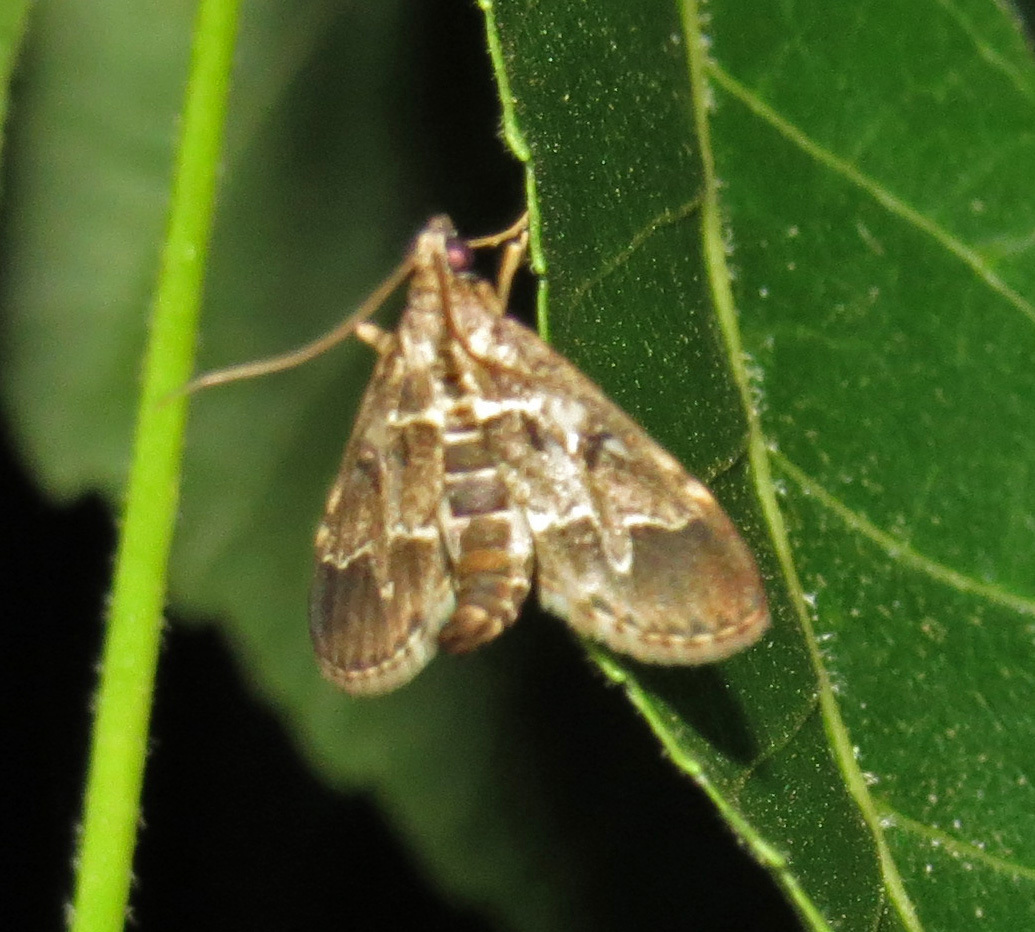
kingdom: Animalia
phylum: Arthropoda
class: Insecta
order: Lepidoptera
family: Crambidae
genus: Duponchelia
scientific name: Duponchelia fovealis
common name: Crambid moth
